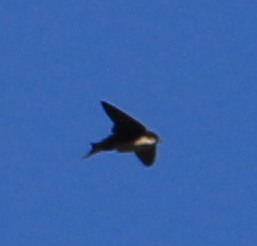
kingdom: Animalia
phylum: Chordata
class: Aves
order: Passeriformes
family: Hirundinidae
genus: Notiochelidon
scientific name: Notiochelidon pileata
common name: Black-capped swallow
